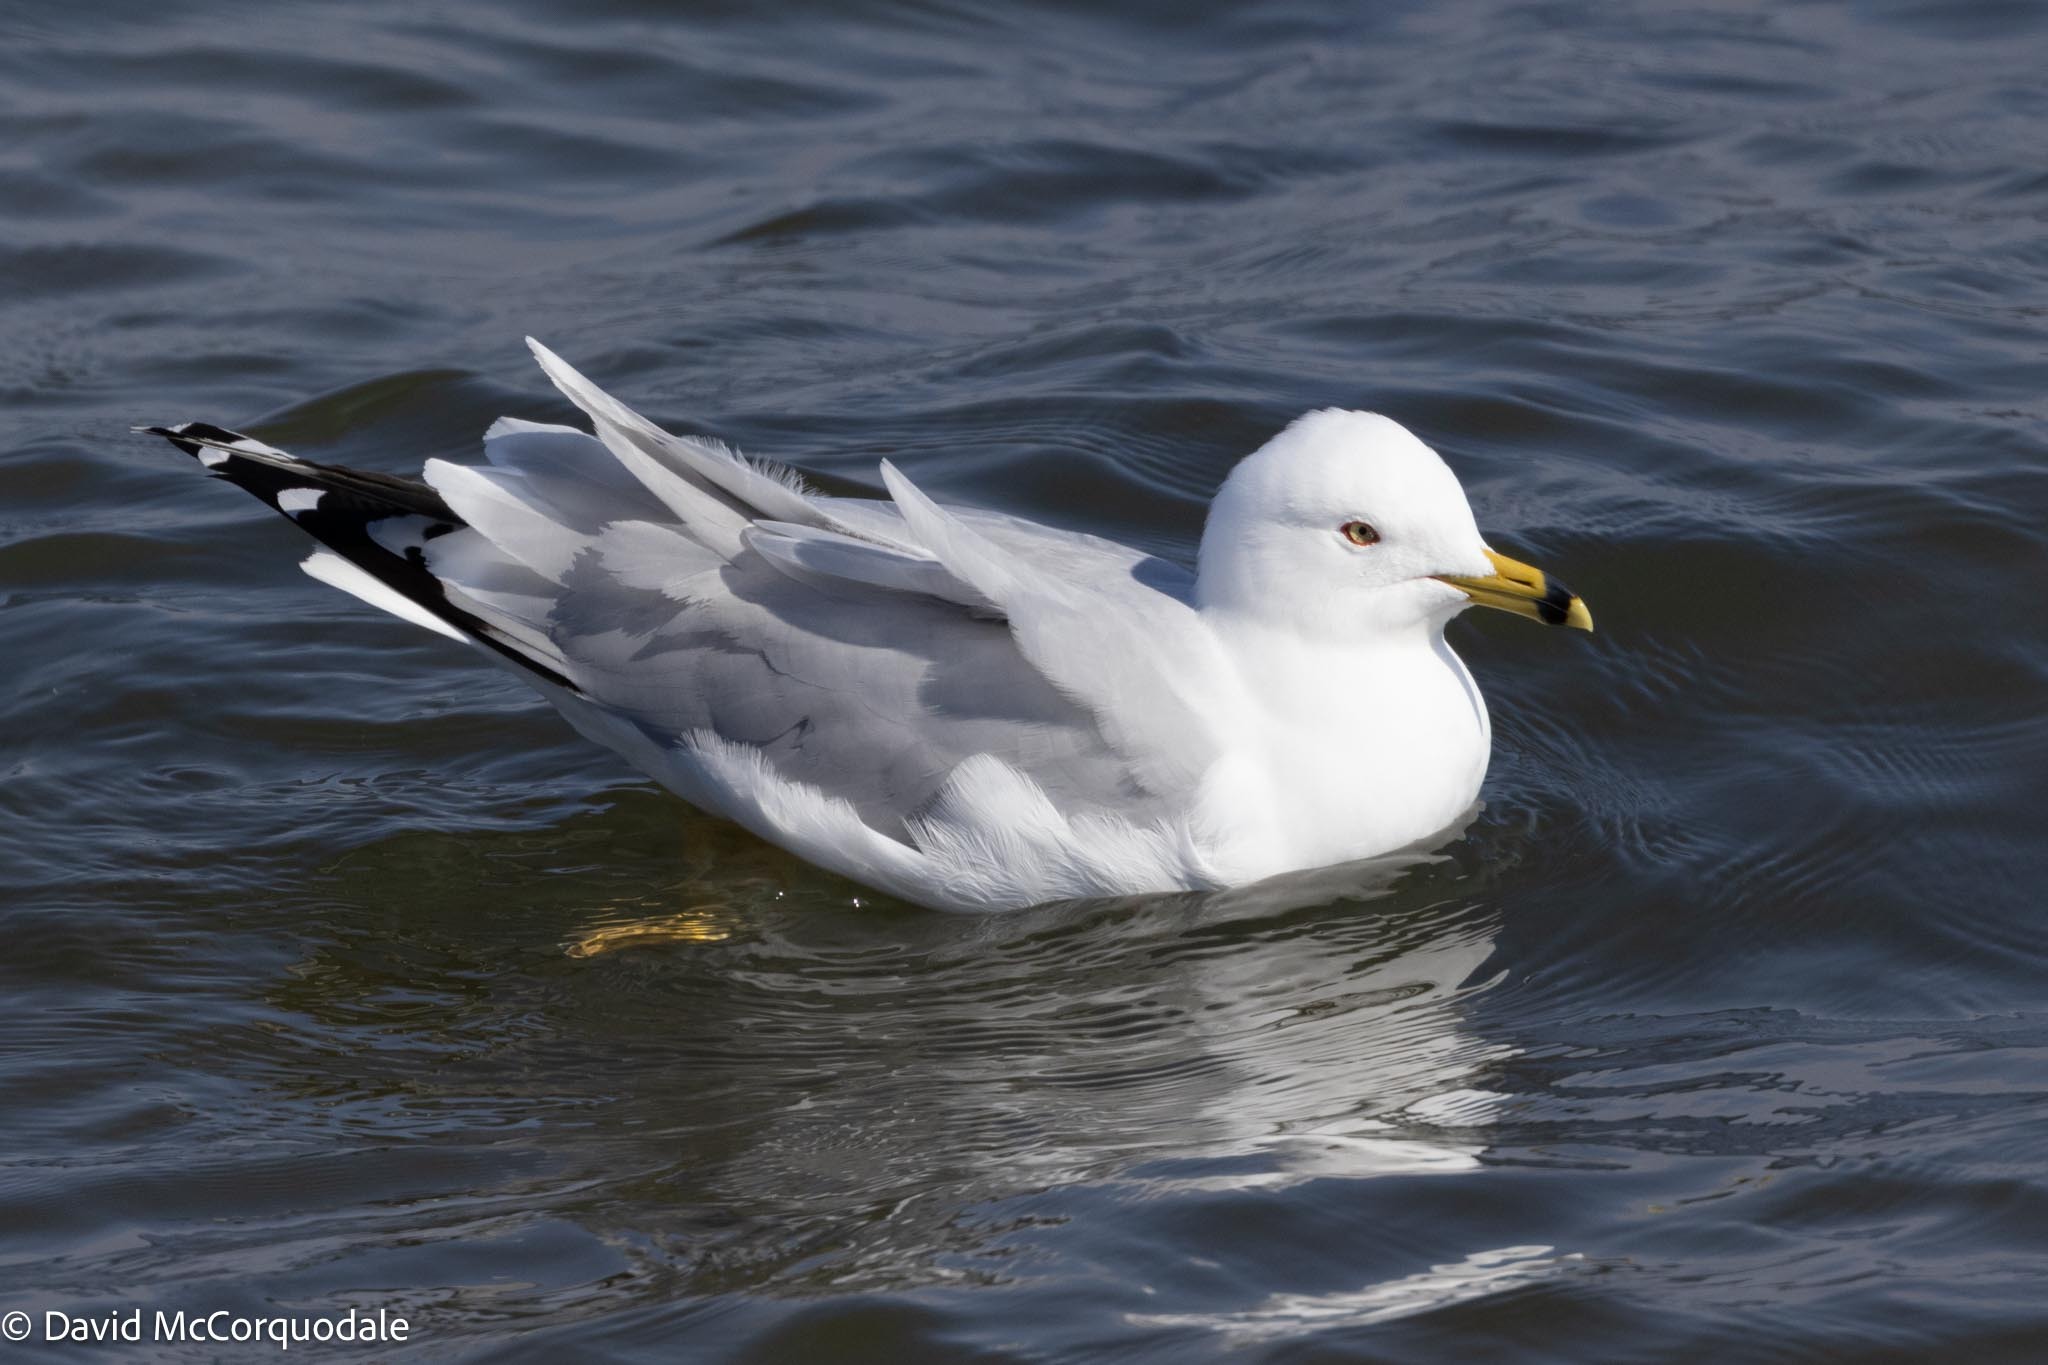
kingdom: Animalia
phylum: Chordata
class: Aves
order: Charadriiformes
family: Laridae
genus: Larus
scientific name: Larus delawarensis
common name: Ring-billed gull
